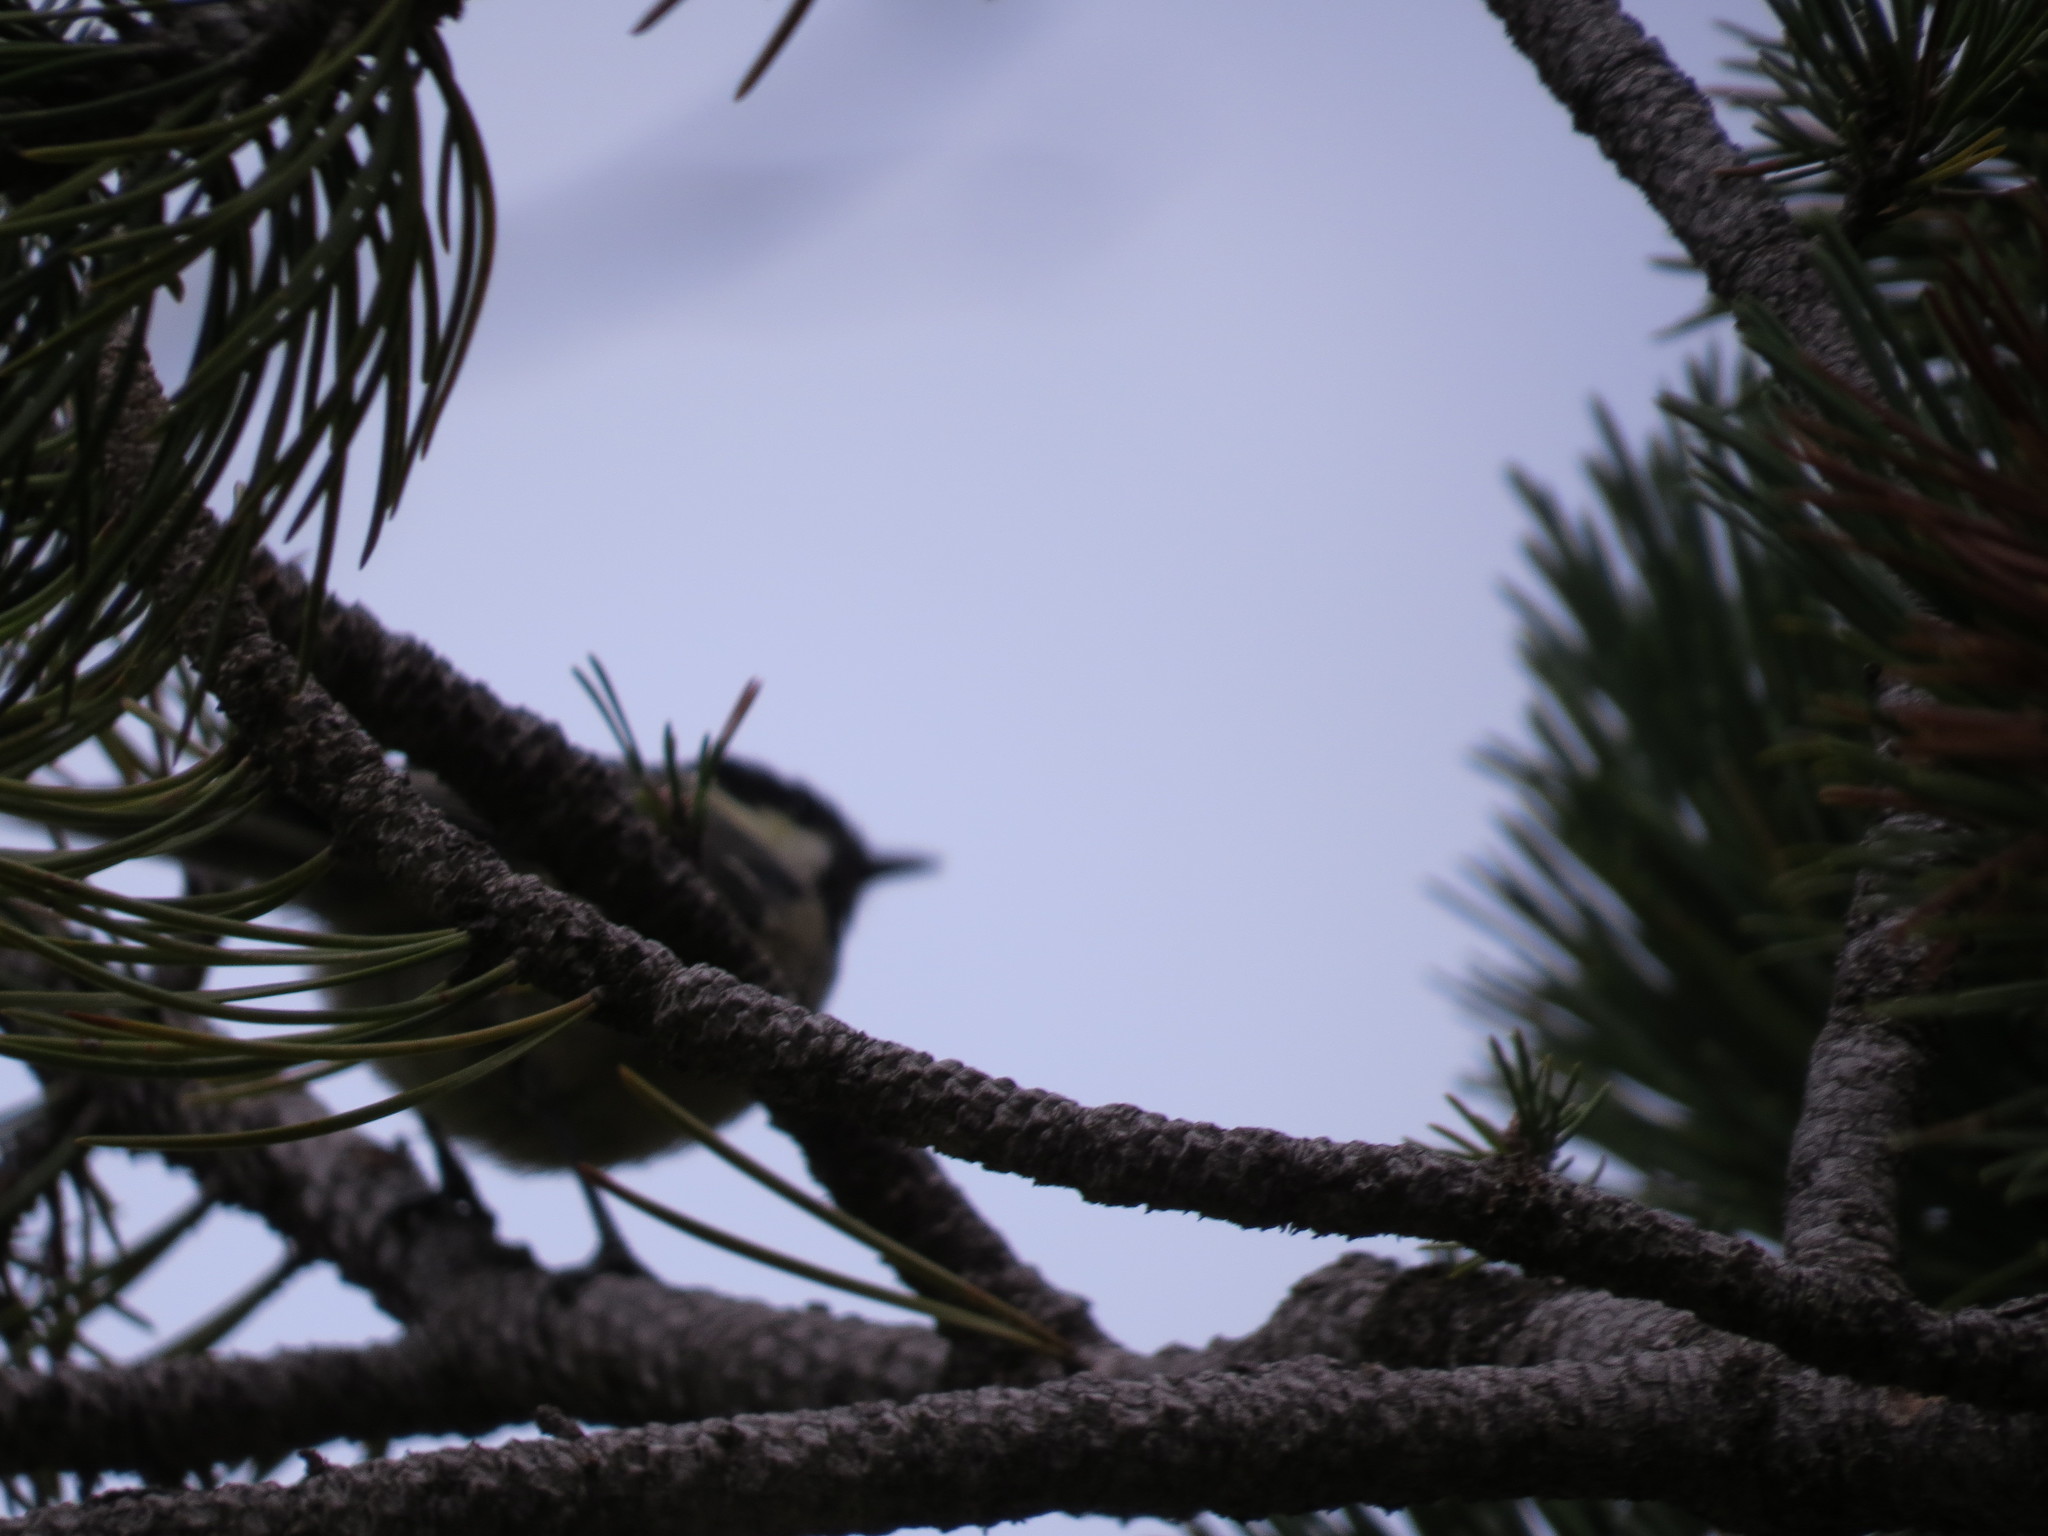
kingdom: Animalia
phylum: Chordata
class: Aves
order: Passeriformes
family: Paridae
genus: Periparus
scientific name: Periparus ater
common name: Coal tit
